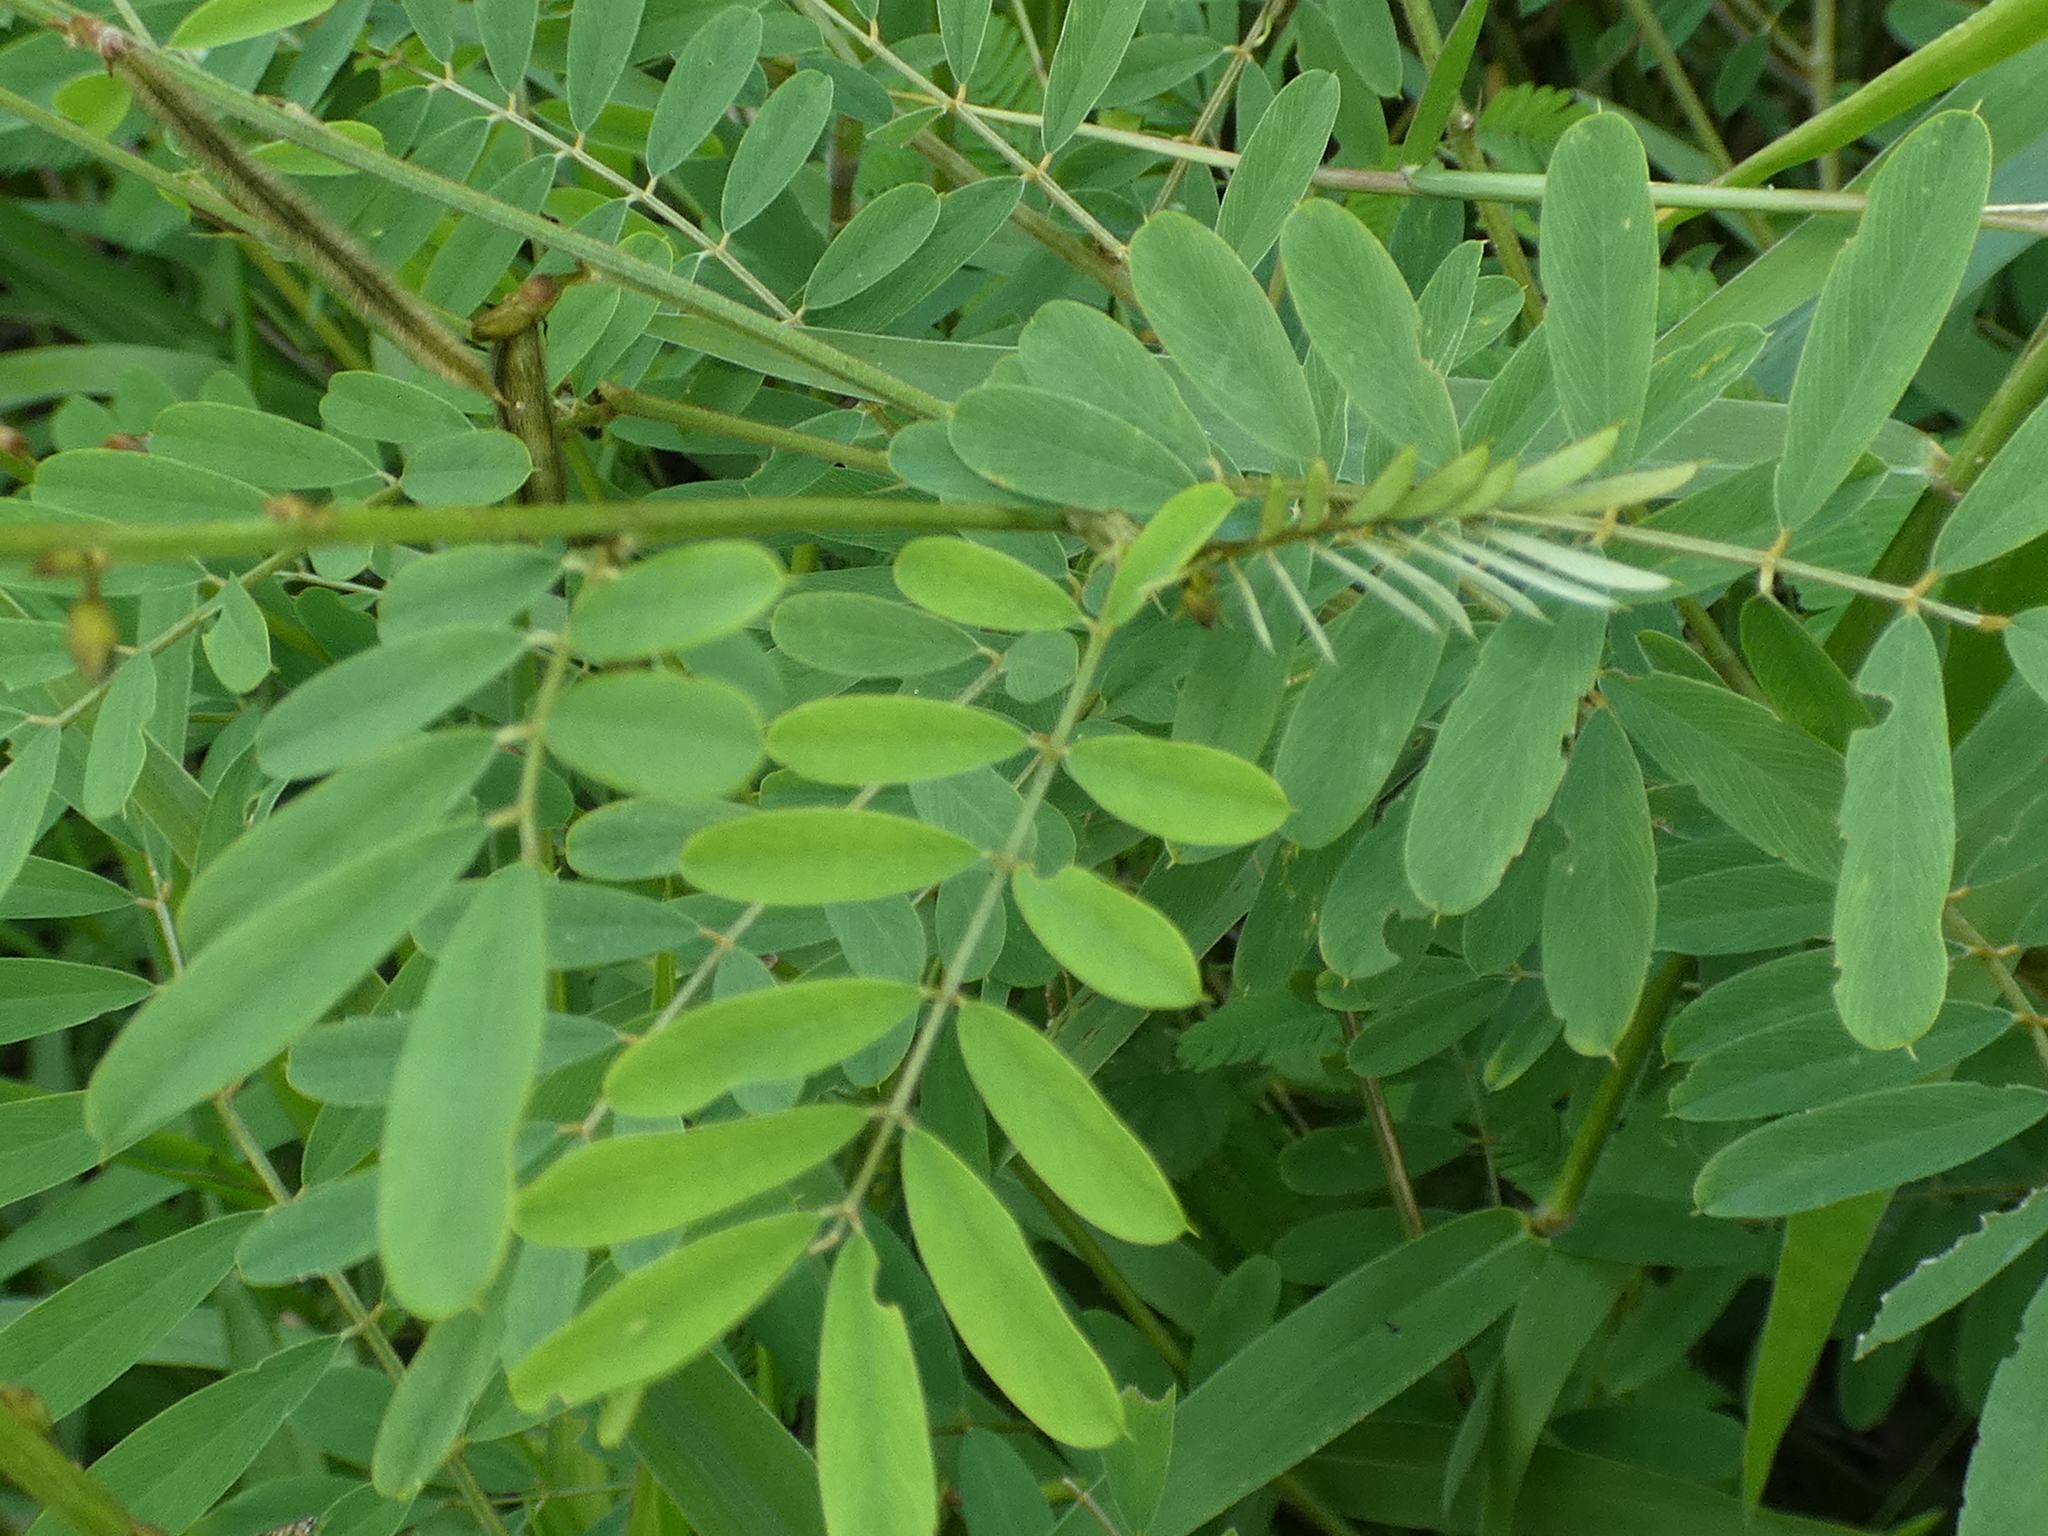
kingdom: Plantae
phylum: Tracheophyta
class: Magnoliopsida
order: Fabales
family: Fabaceae
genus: Tephrosia
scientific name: Tephrosia noctiflora
